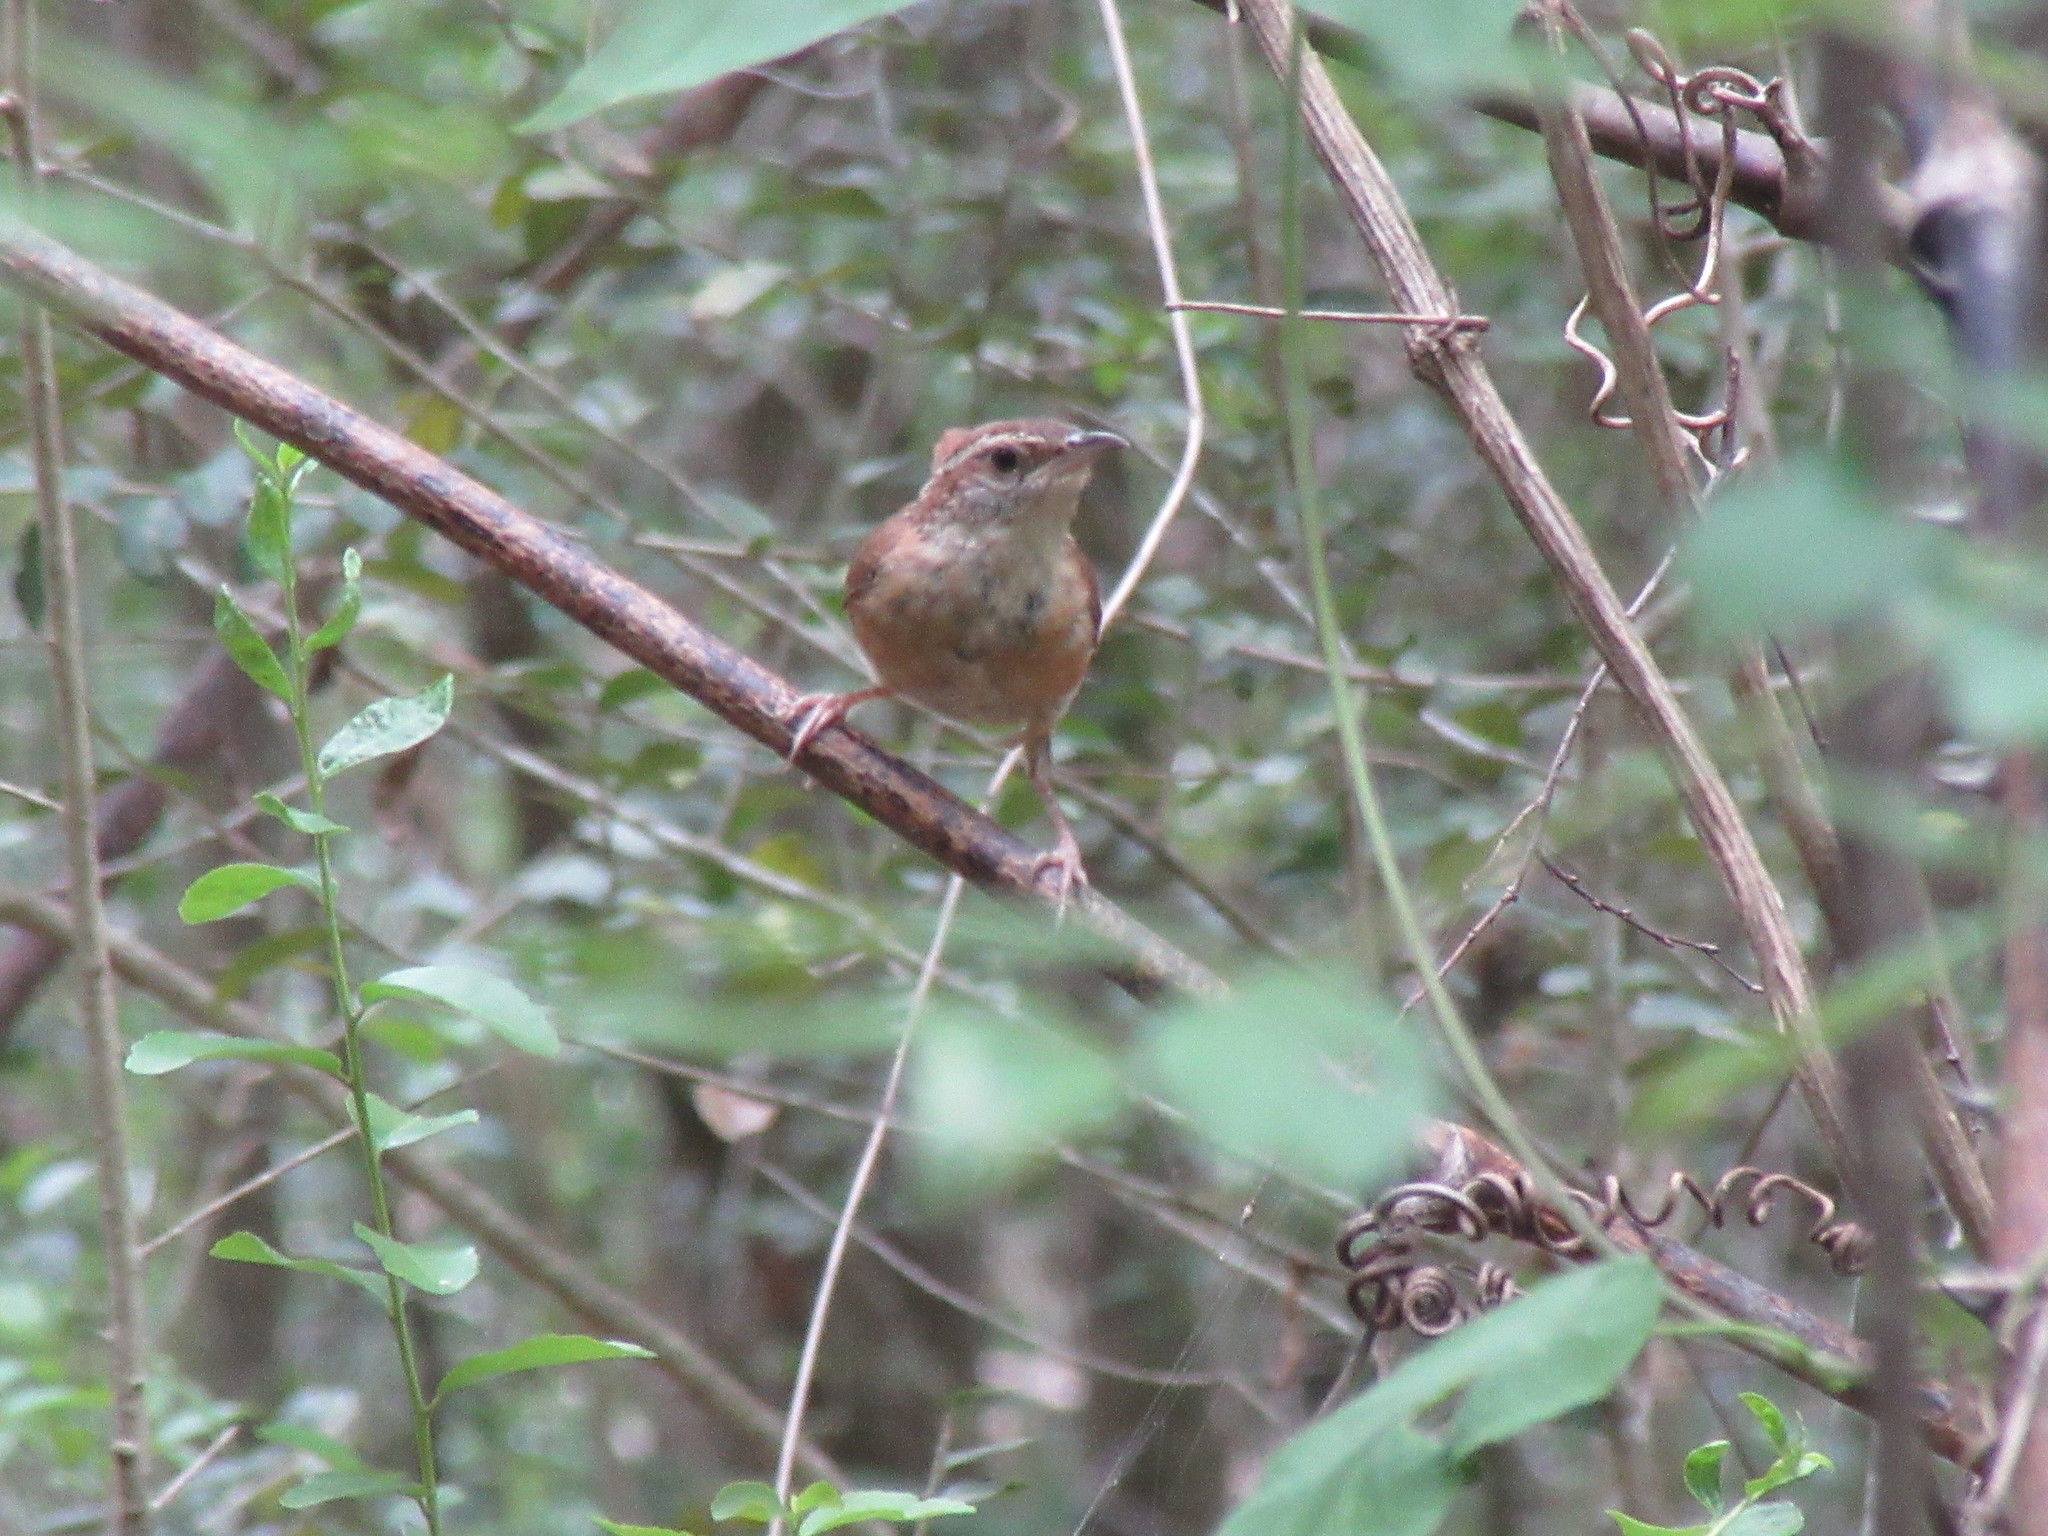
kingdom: Animalia
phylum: Chordata
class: Aves
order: Passeriformes
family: Troglodytidae
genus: Thryothorus
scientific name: Thryothorus ludovicianus
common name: Carolina wren
